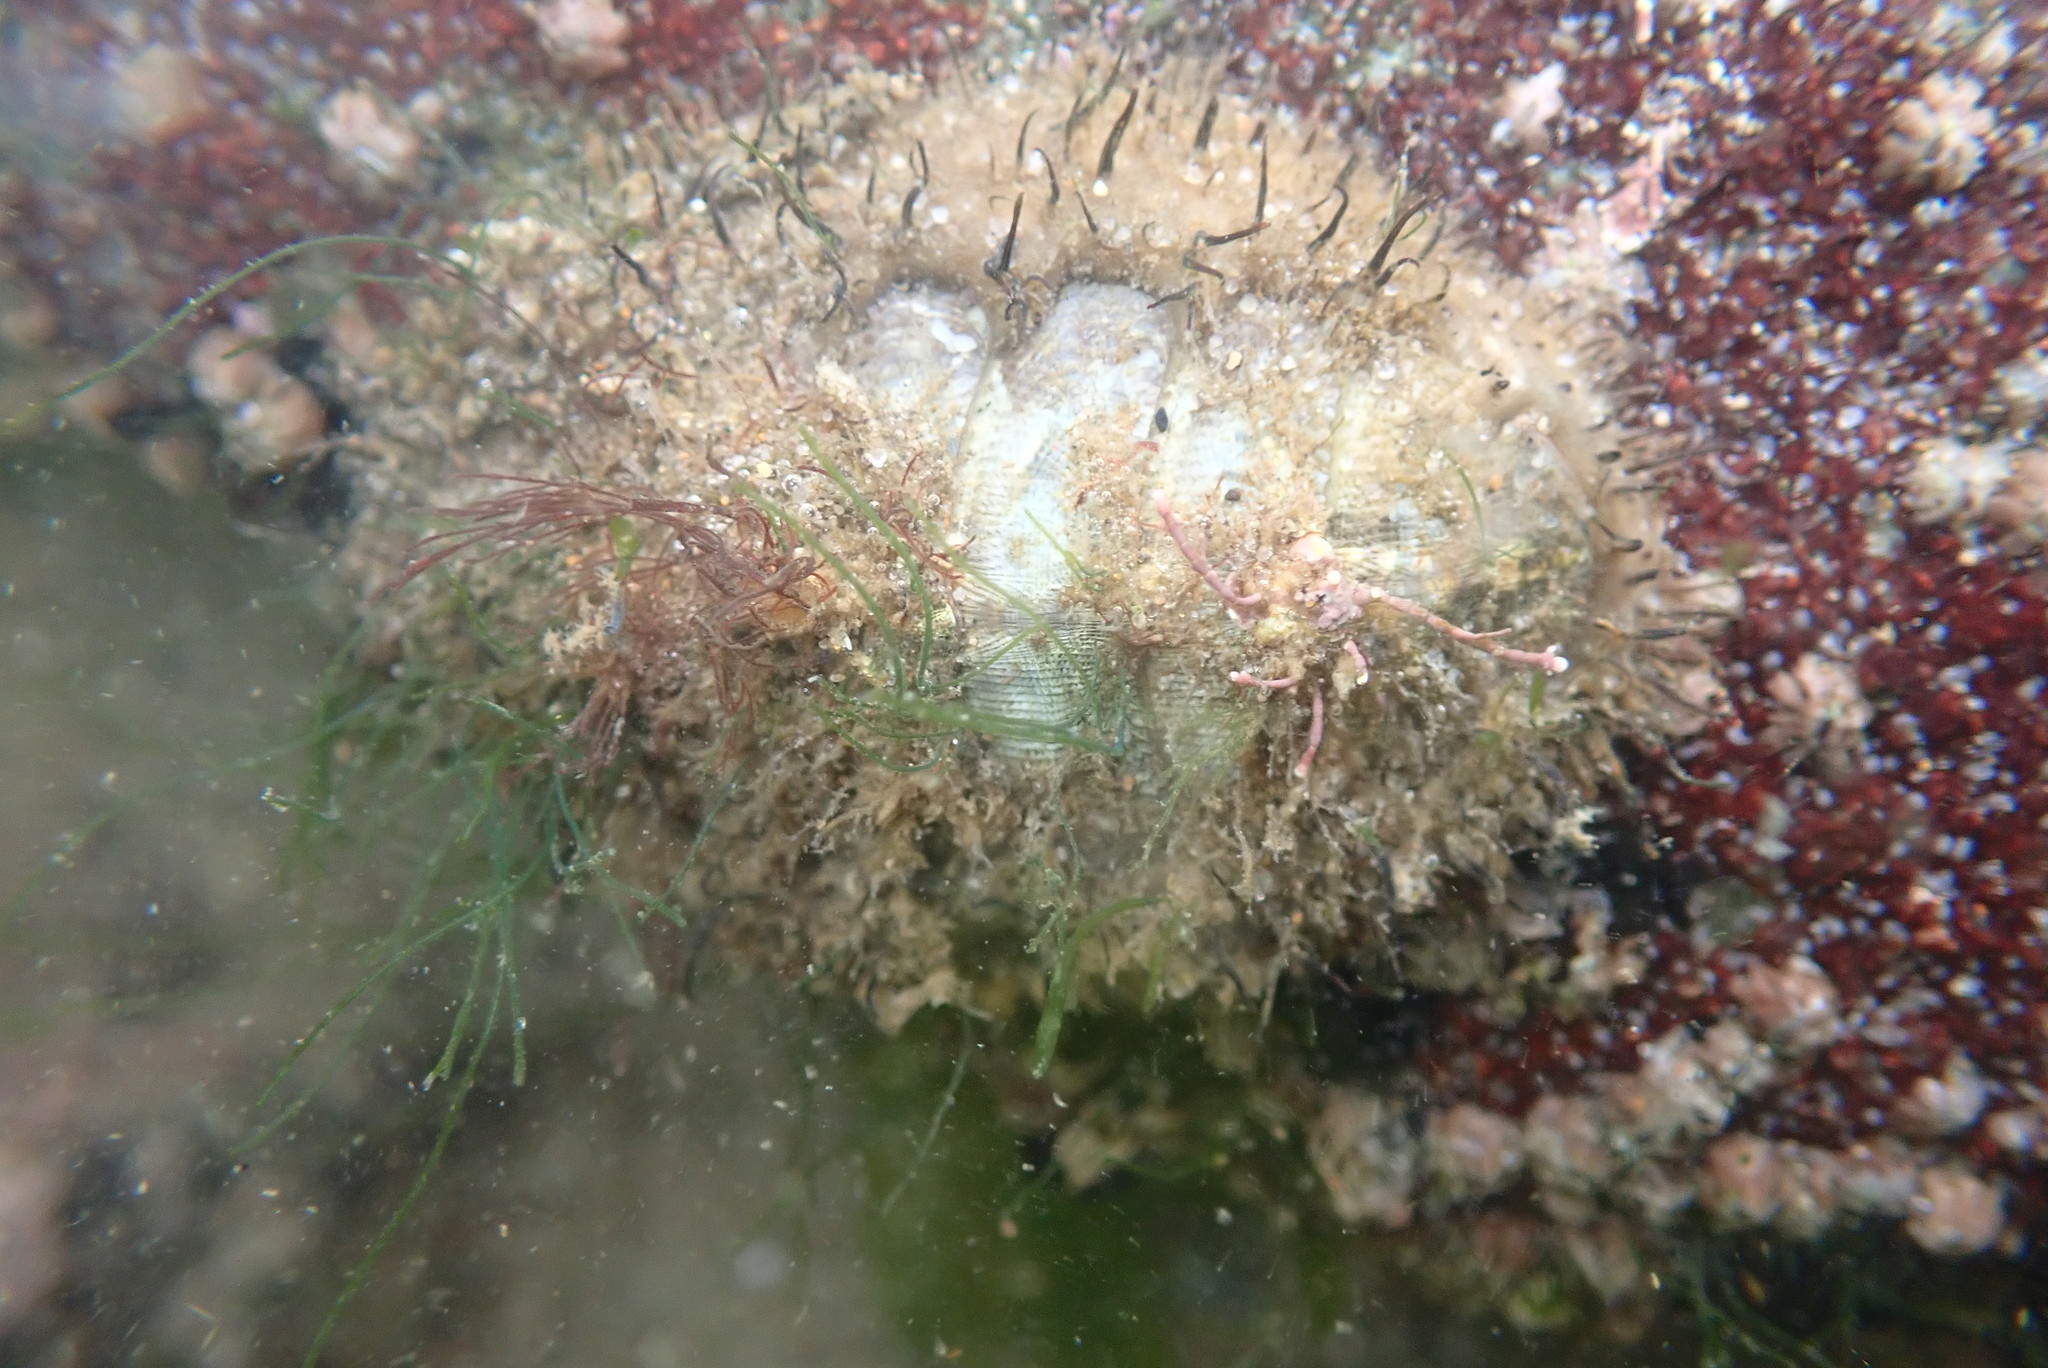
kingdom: Animalia
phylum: Mollusca
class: Polyplacophora
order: Chitonida
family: Mopaliidae
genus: Mopalia
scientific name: Mopalia muscosa
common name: Mossy chiton
